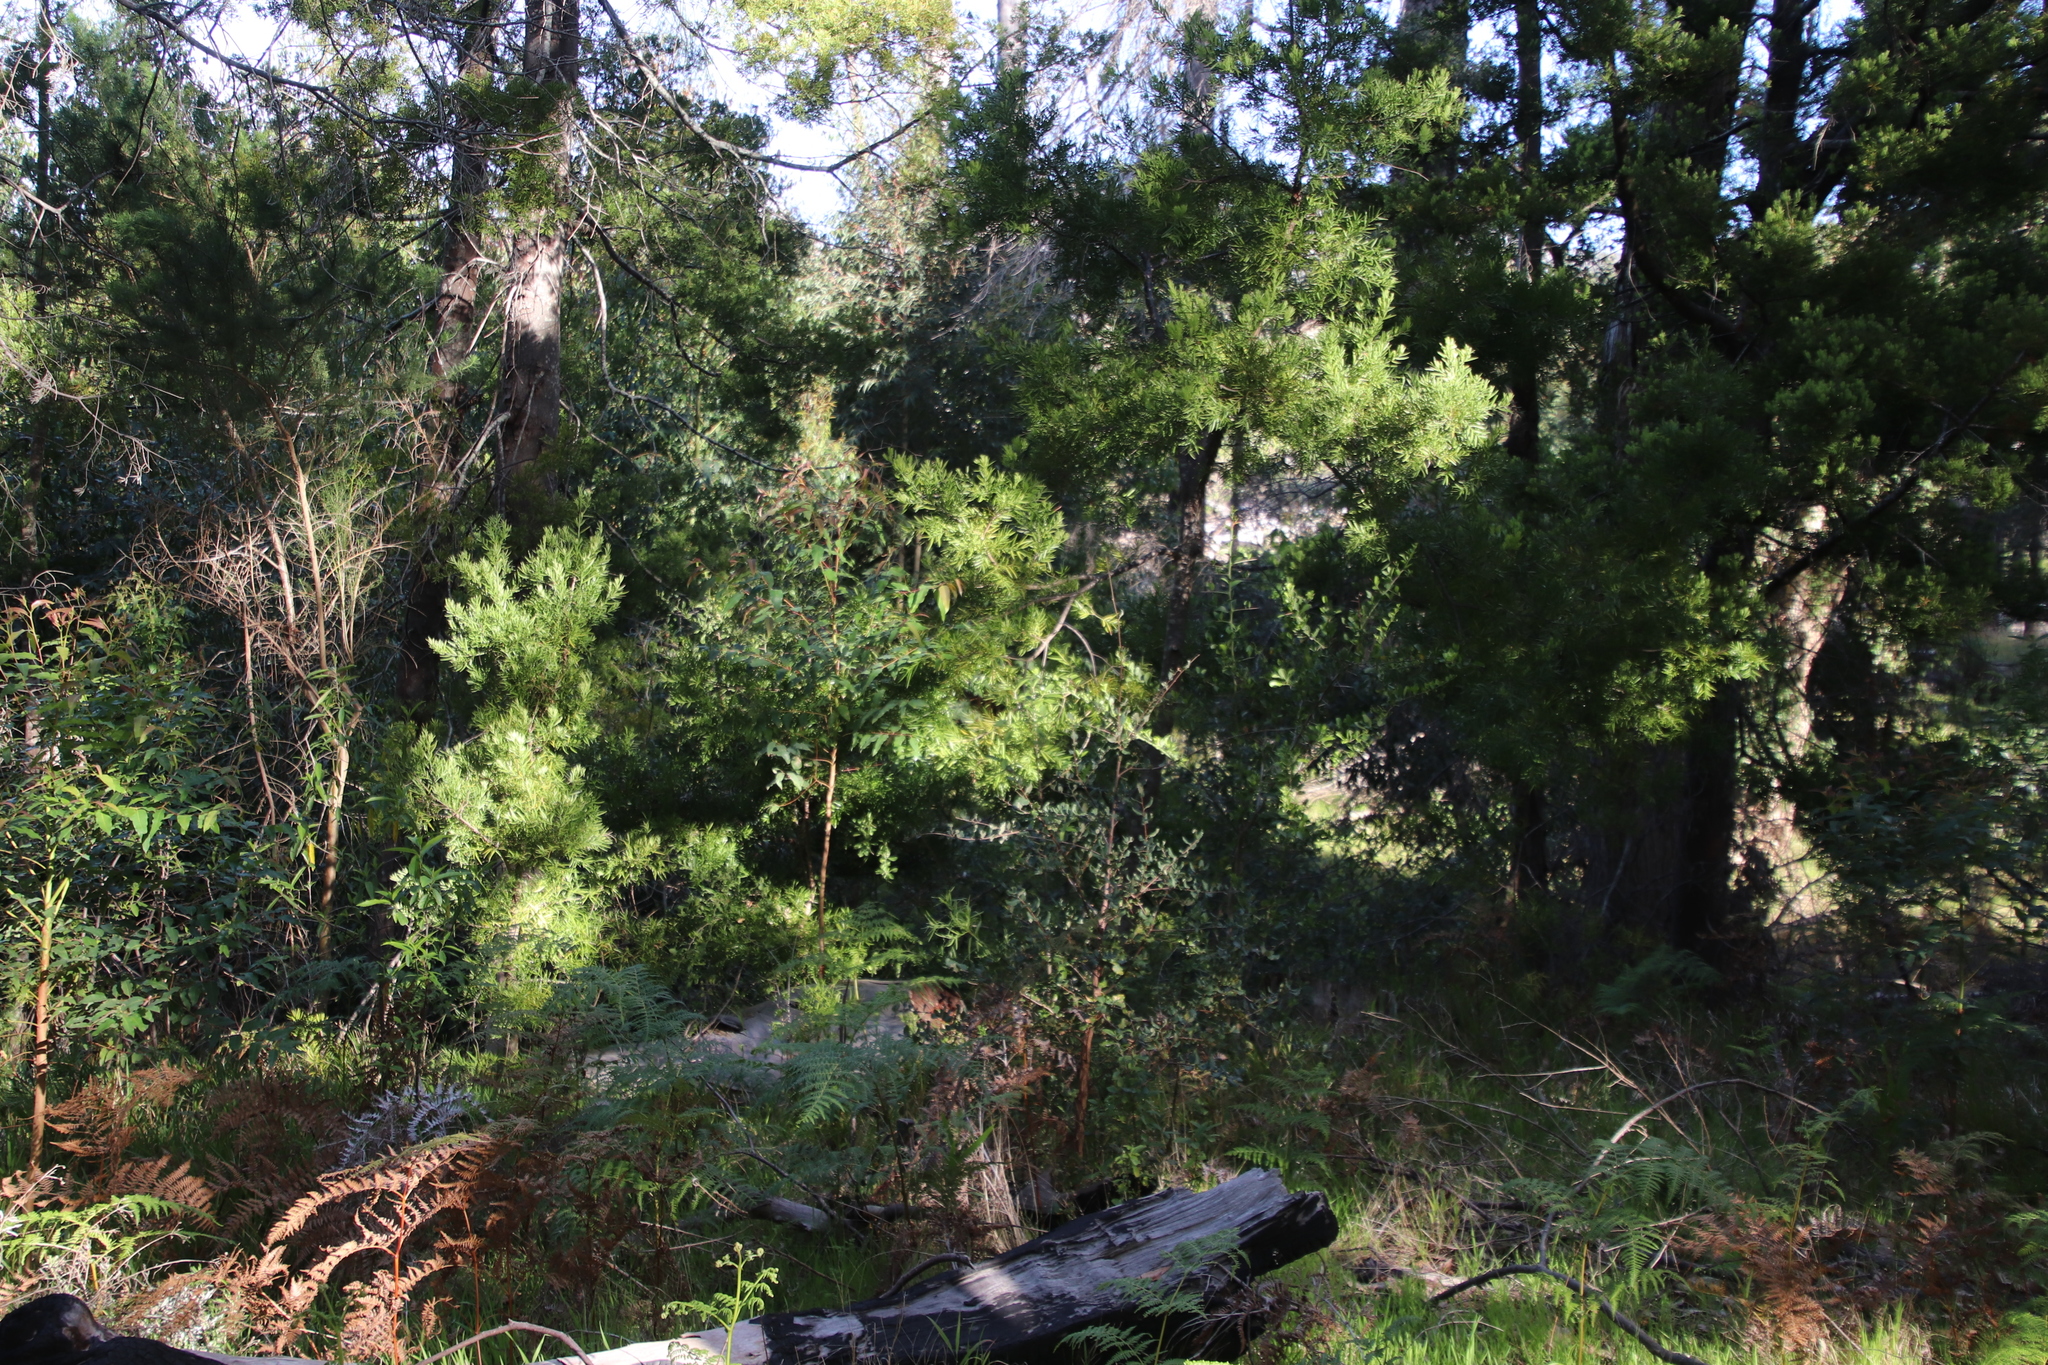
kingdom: Plantae
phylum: Tracheophyta
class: Pinopsida
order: Pinales
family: Podocarpaceae
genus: Afrocarpus
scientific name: Afrocarpus falcatus
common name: Bastard yellowwood
